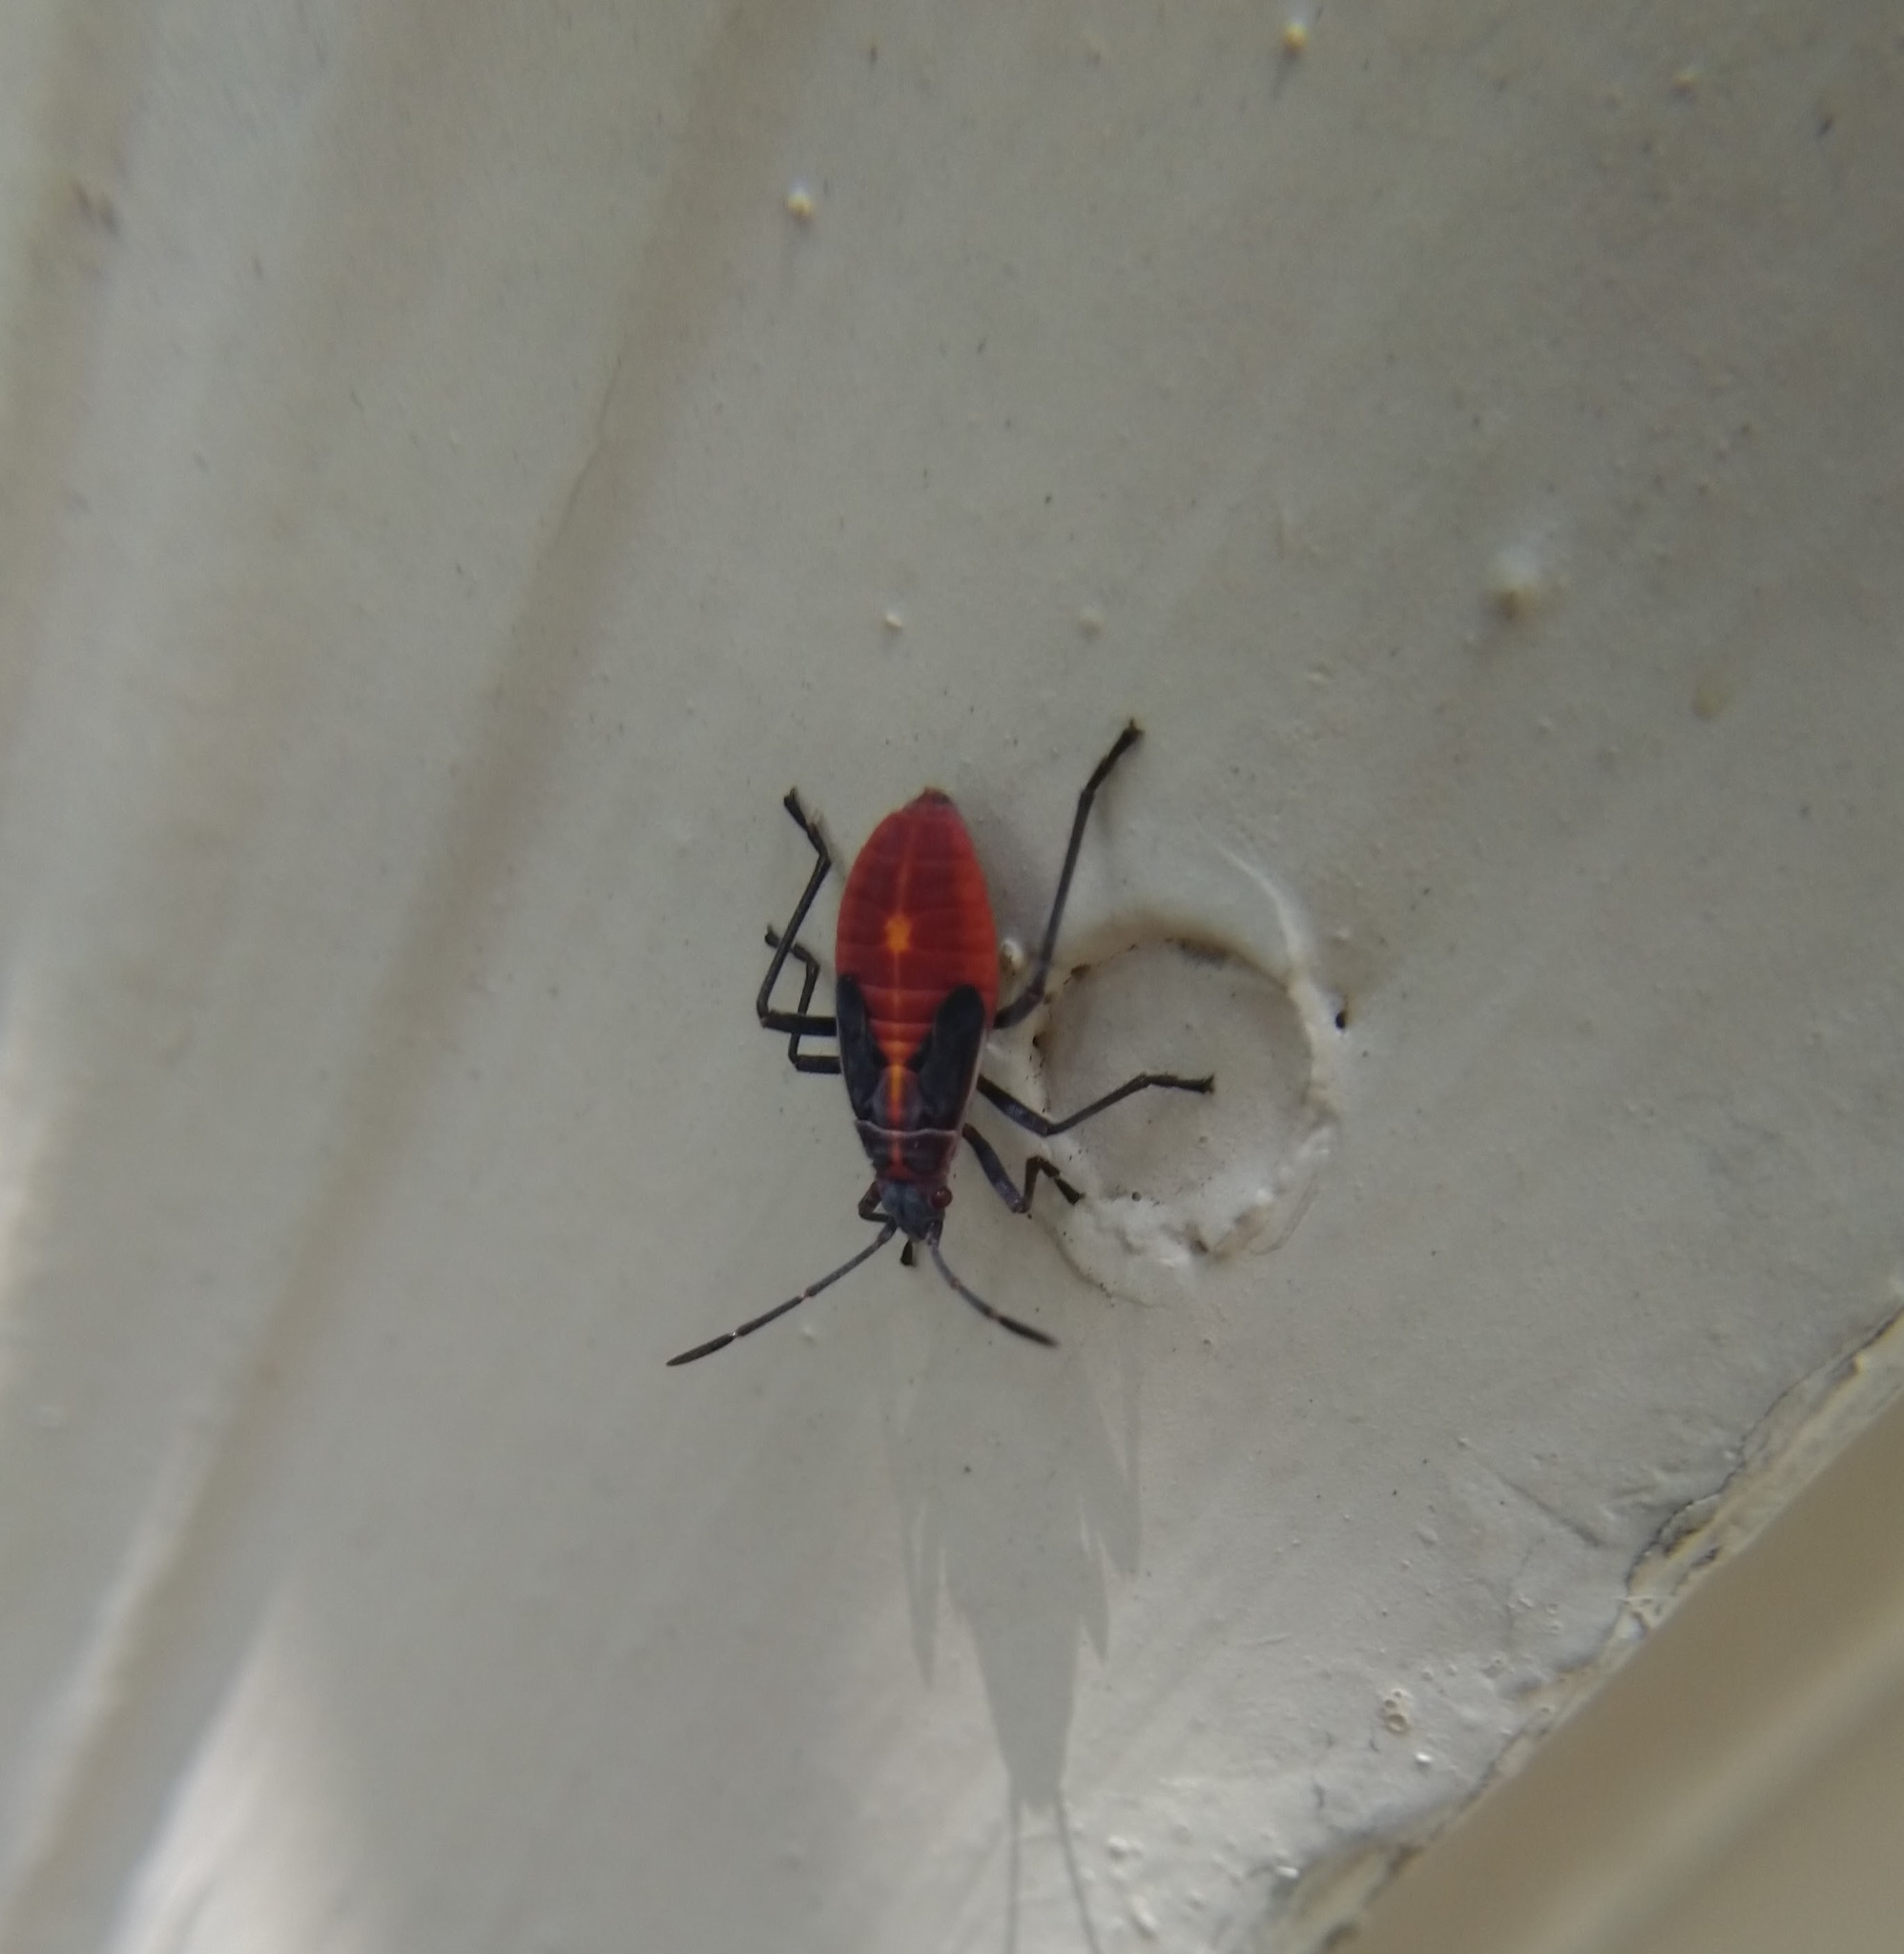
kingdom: Animalia
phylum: Arthropoda
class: Insecta
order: Hemiptera
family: Rhopalidae
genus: Boisea
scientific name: Boisea trivittata
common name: Boxelder bug
